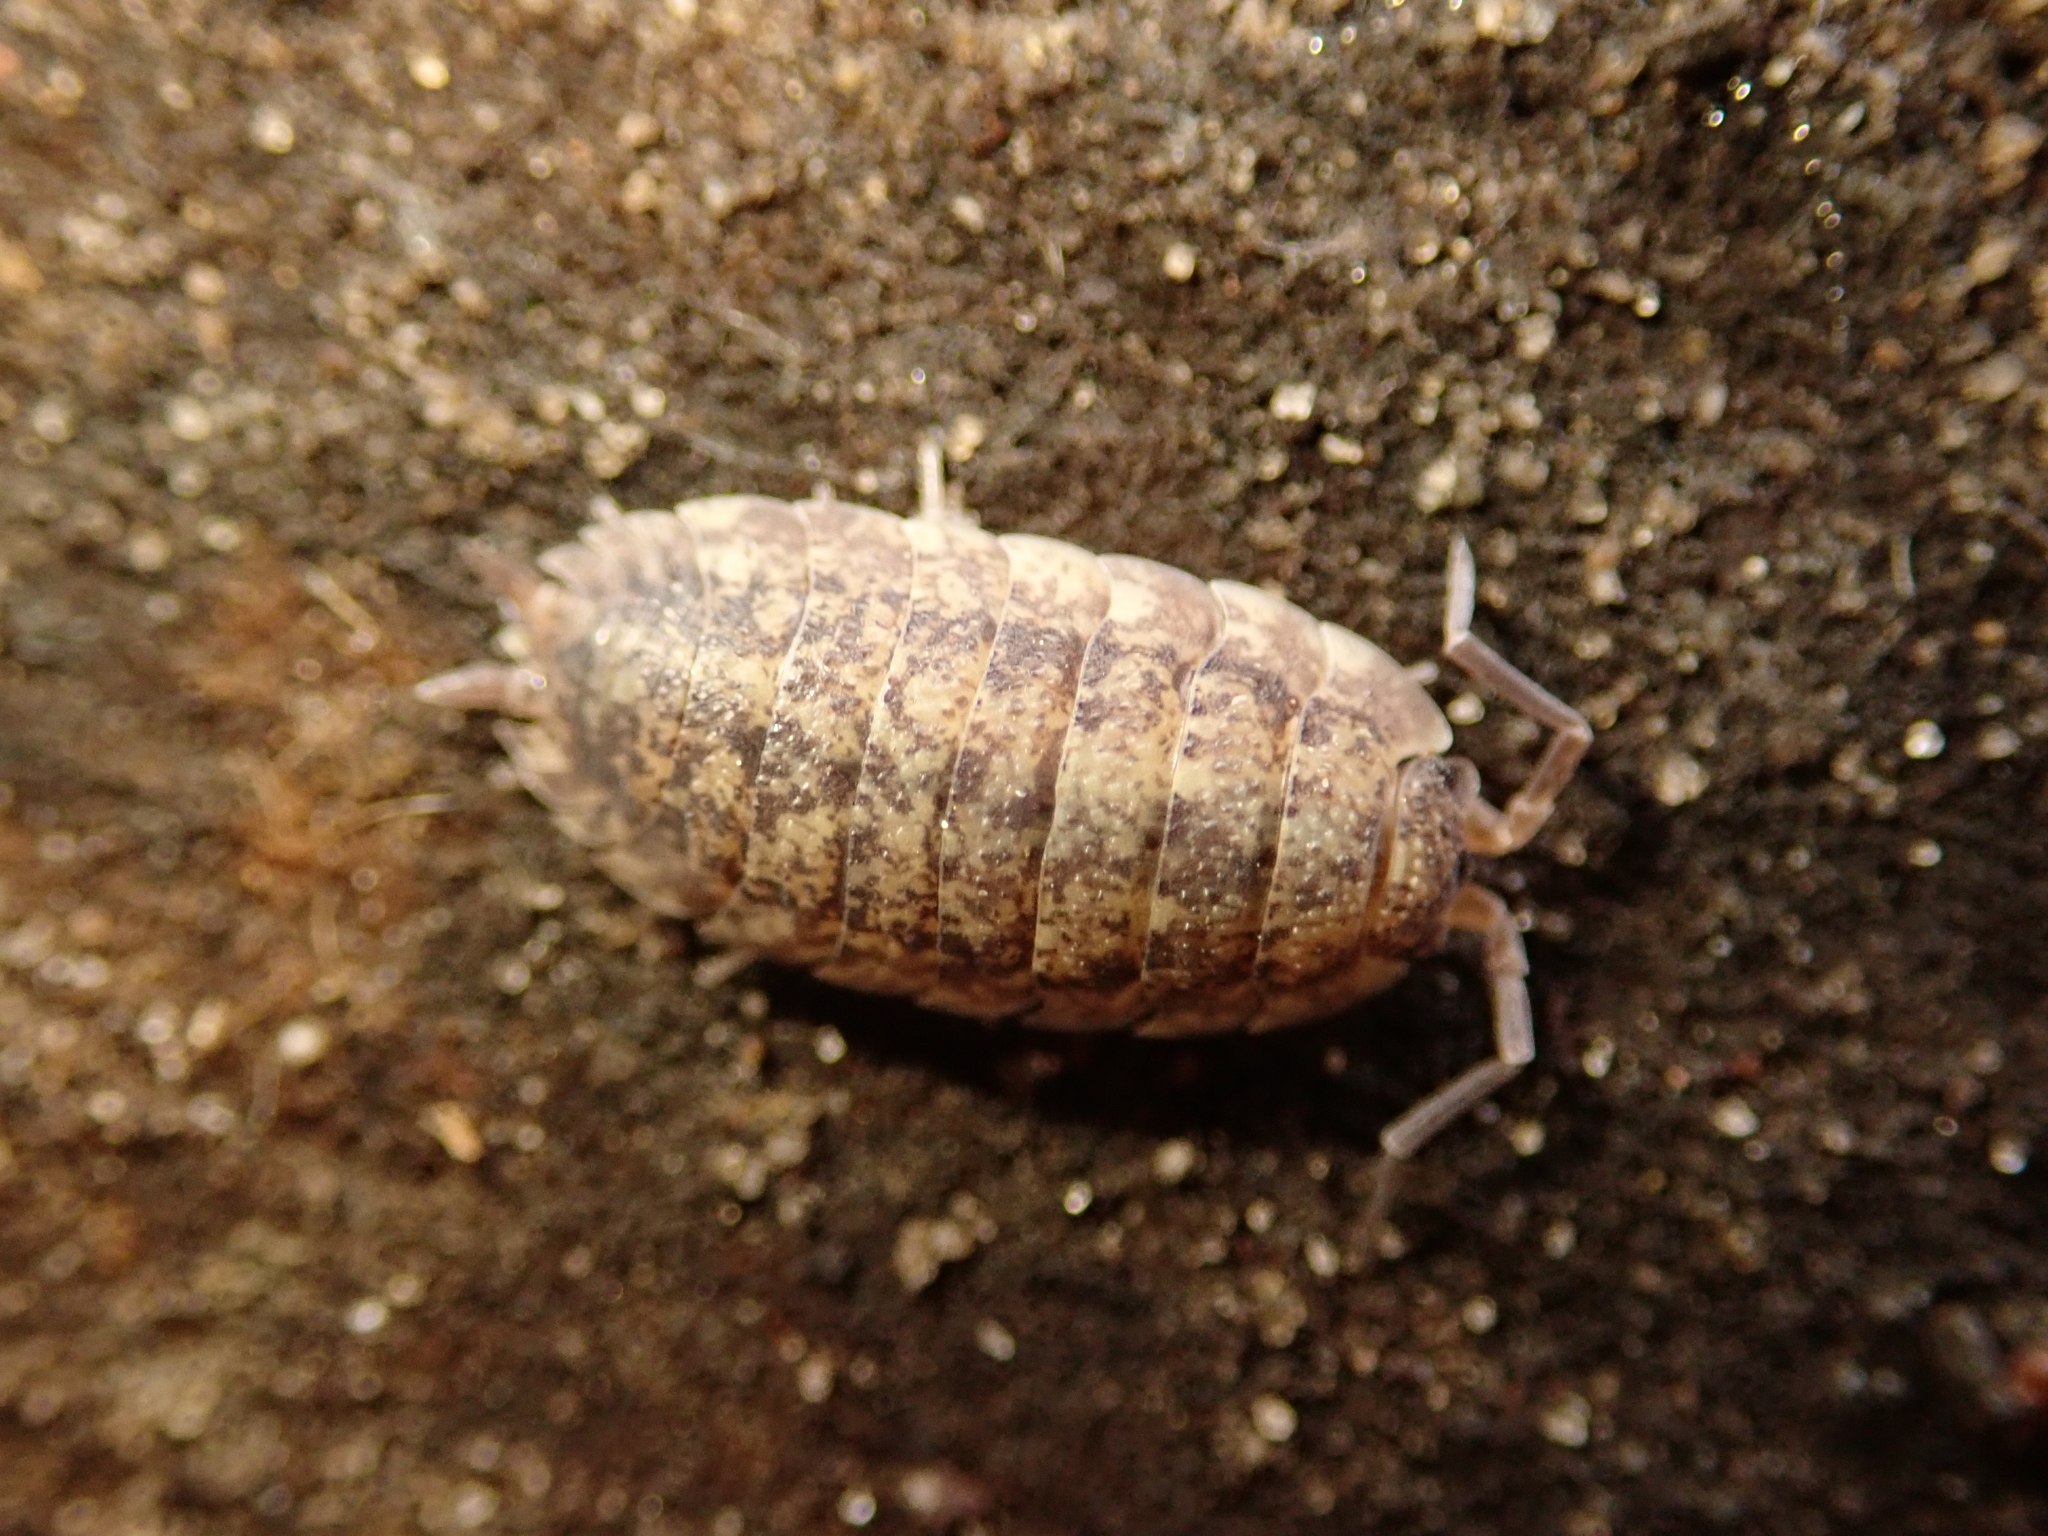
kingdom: Animalia
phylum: Arthropoda
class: Malacostraca
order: Isopoda
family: Porcellionidae
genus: Porcellio
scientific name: Porcellio scaber
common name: Common rough woodlouse
